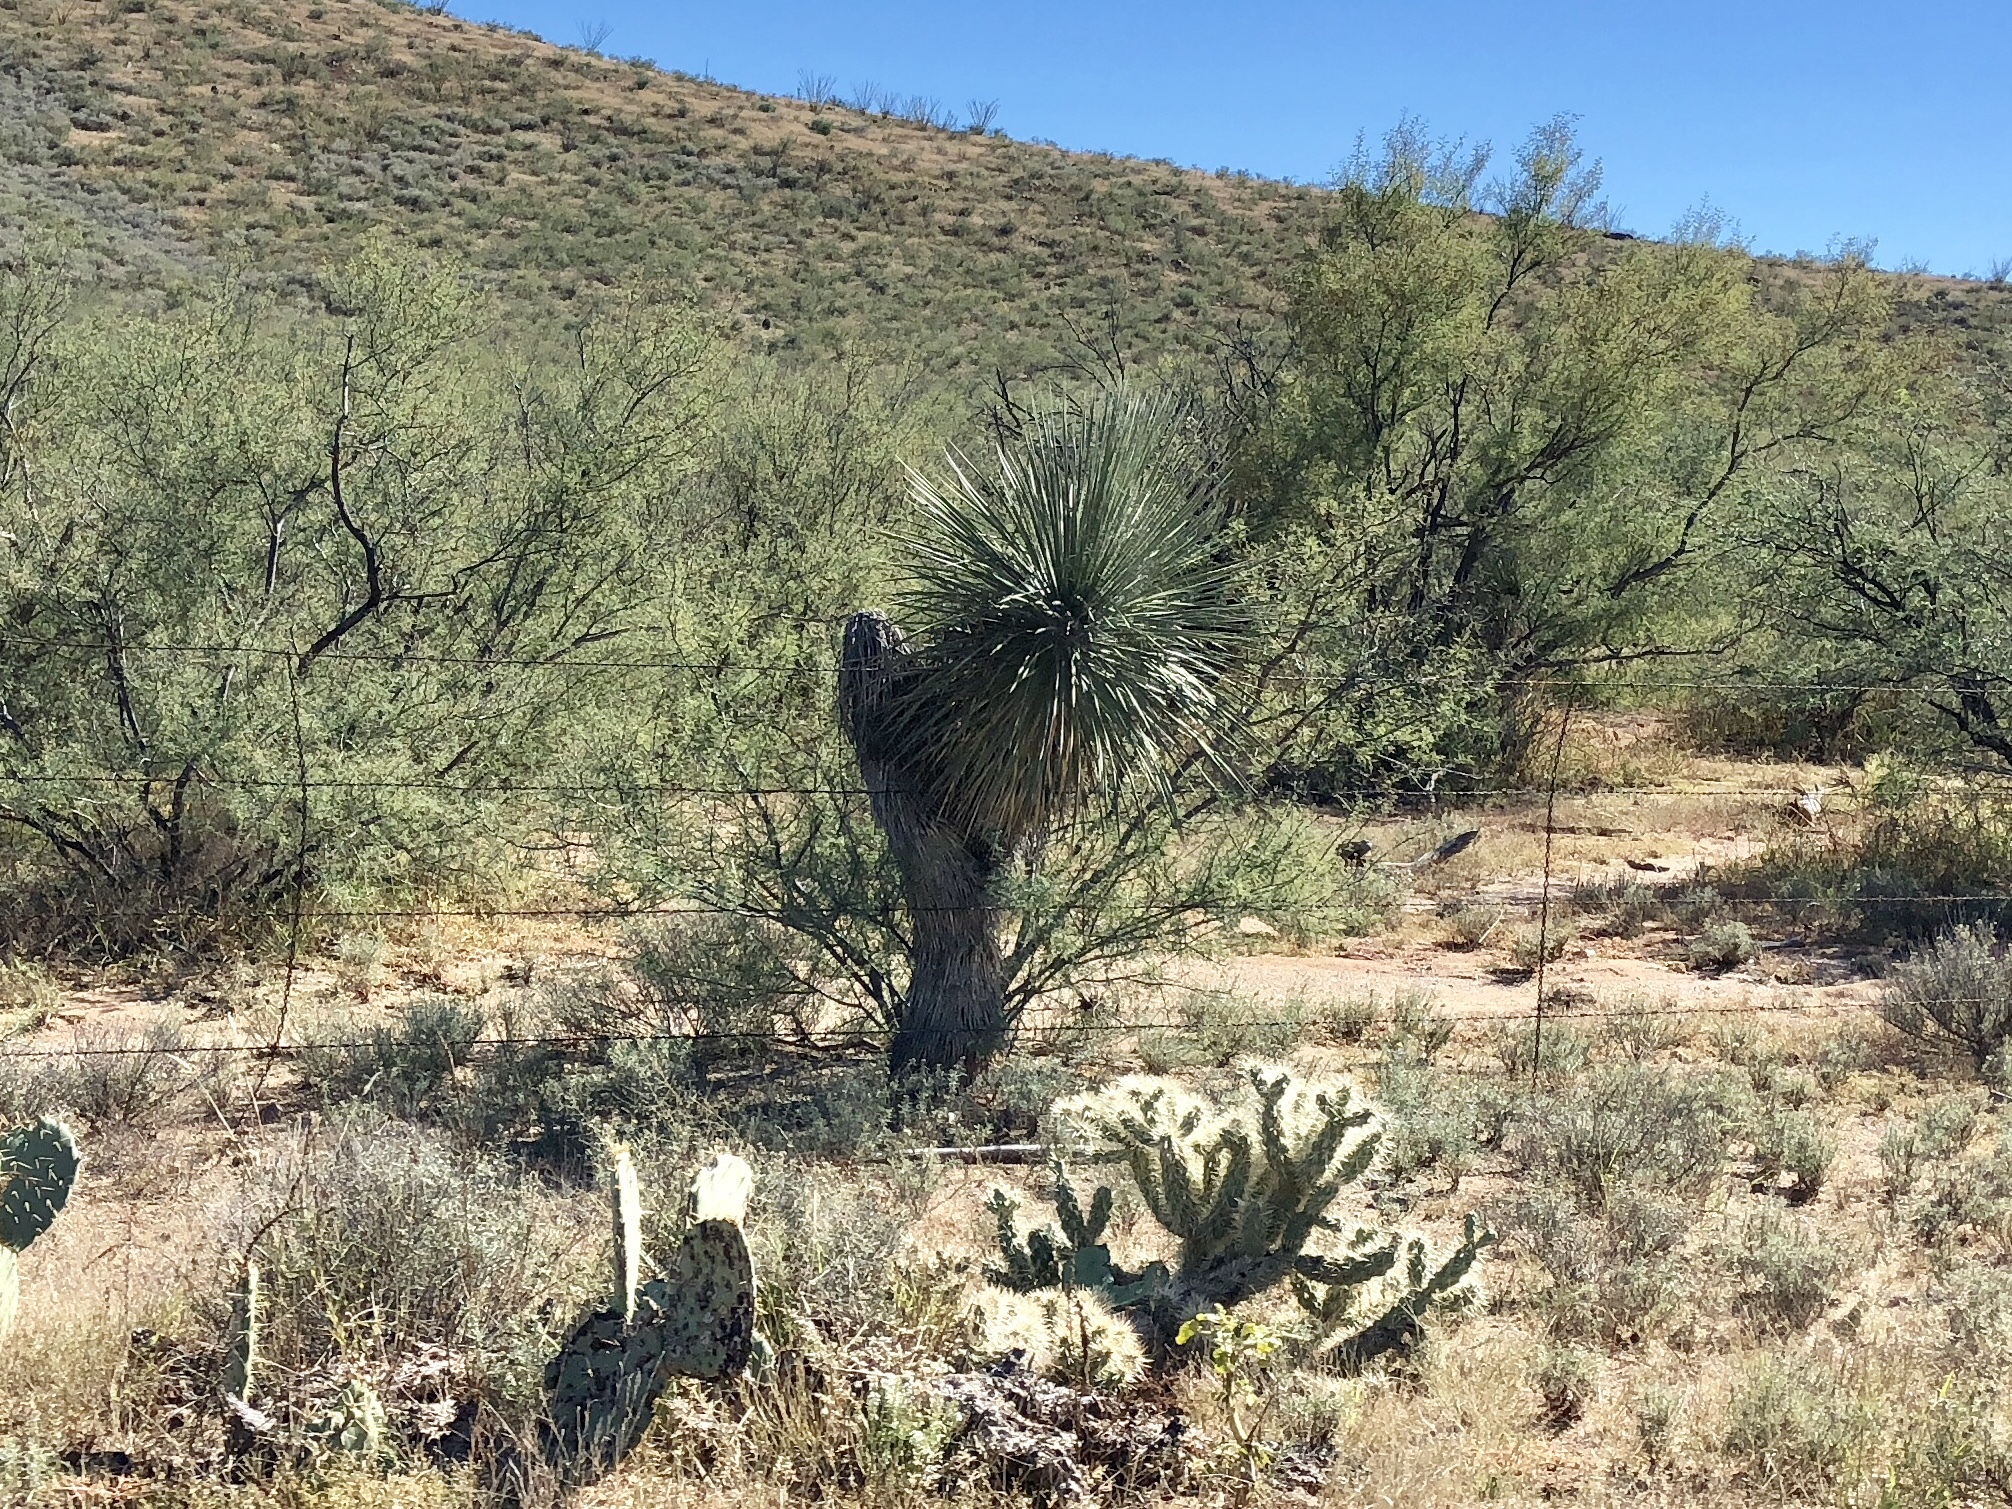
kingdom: Plantae
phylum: Tracheophyta
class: Liliopsida
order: Asparagales
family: Asparagaceae
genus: Yucca
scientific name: Yucca elata
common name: Palmella
